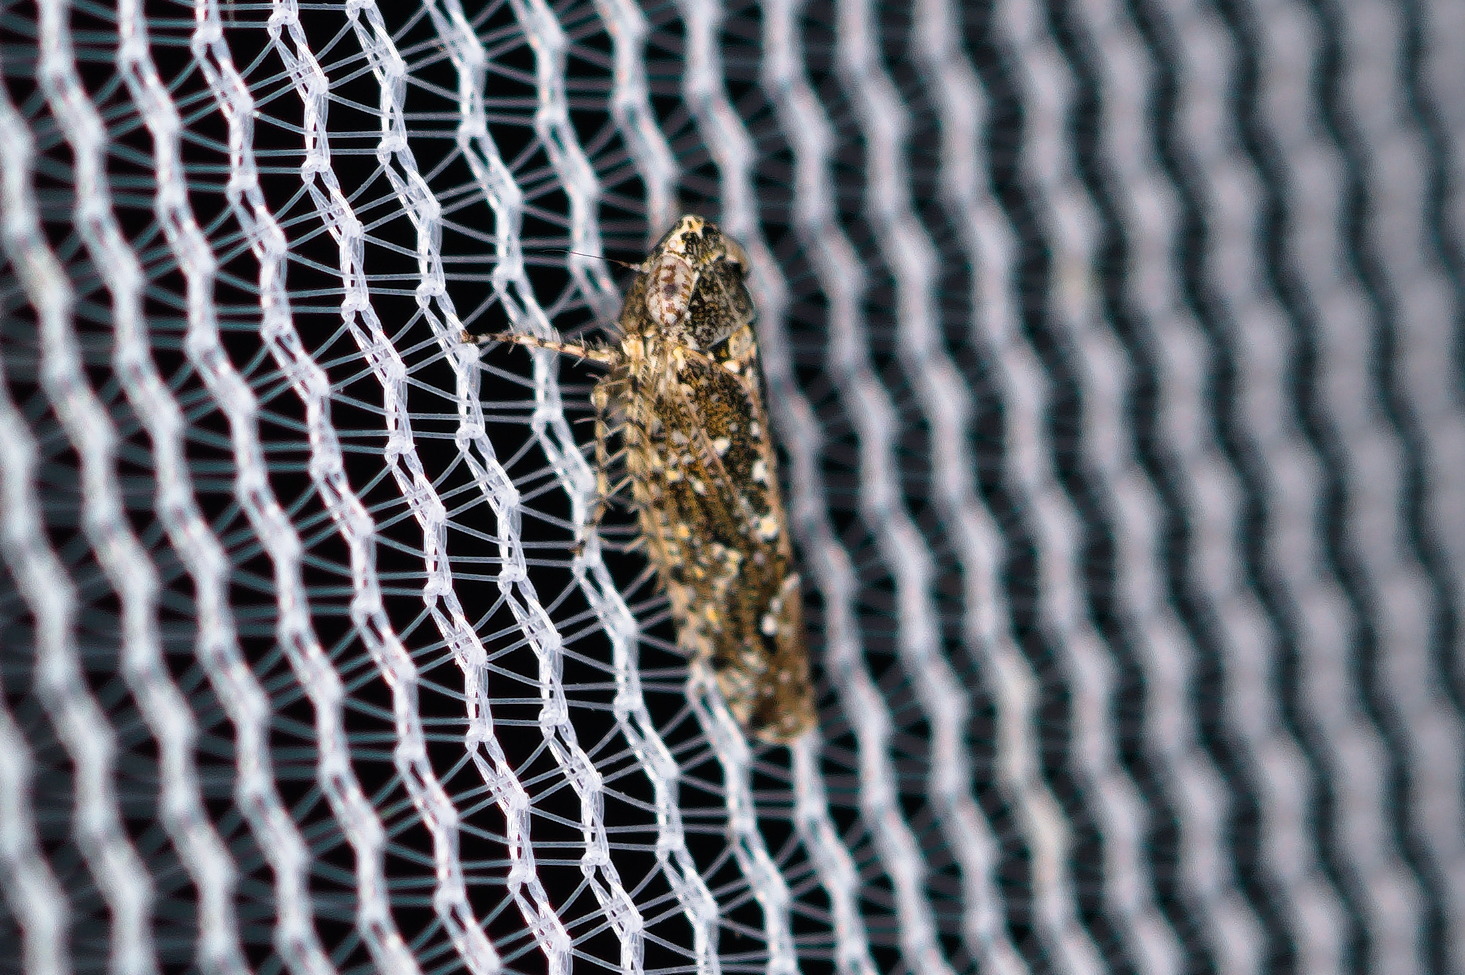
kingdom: Animalia
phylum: Arthropoda
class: Insecta
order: Hemiptera
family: Cicadellidae
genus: Dixianus
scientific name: Dixianus utahnus
